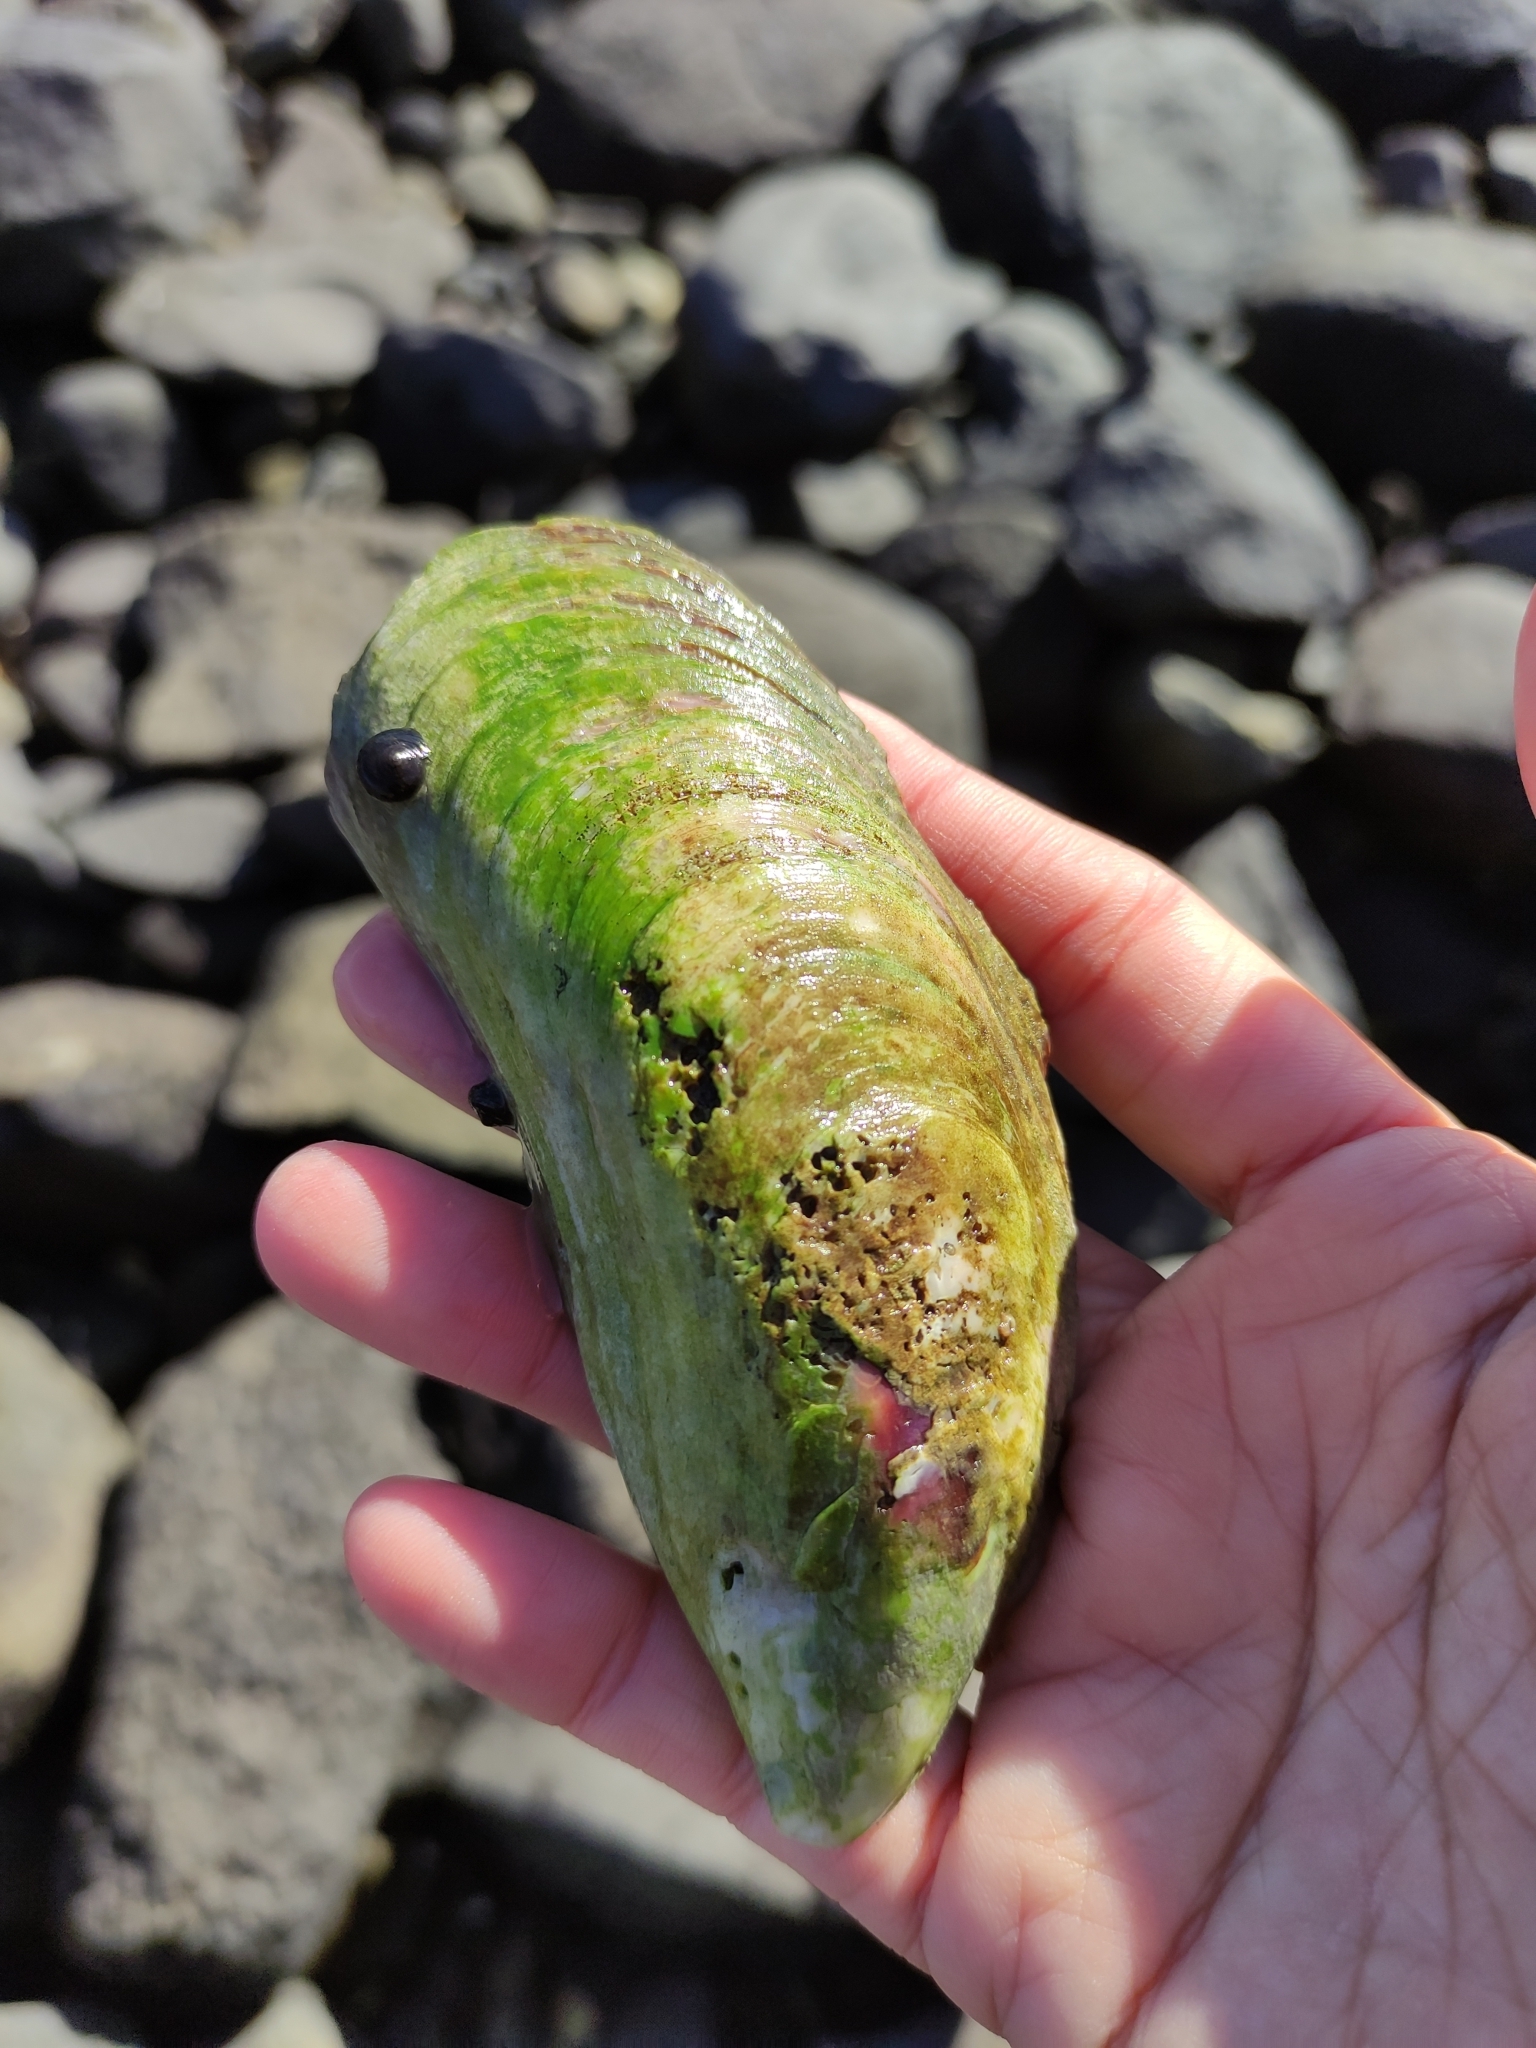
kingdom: Animalia
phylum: Mollusca
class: Bivalvia
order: Mytilida
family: Mytilidae
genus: Perna
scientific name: Perna canaliculus
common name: New zealand greenshelltm
